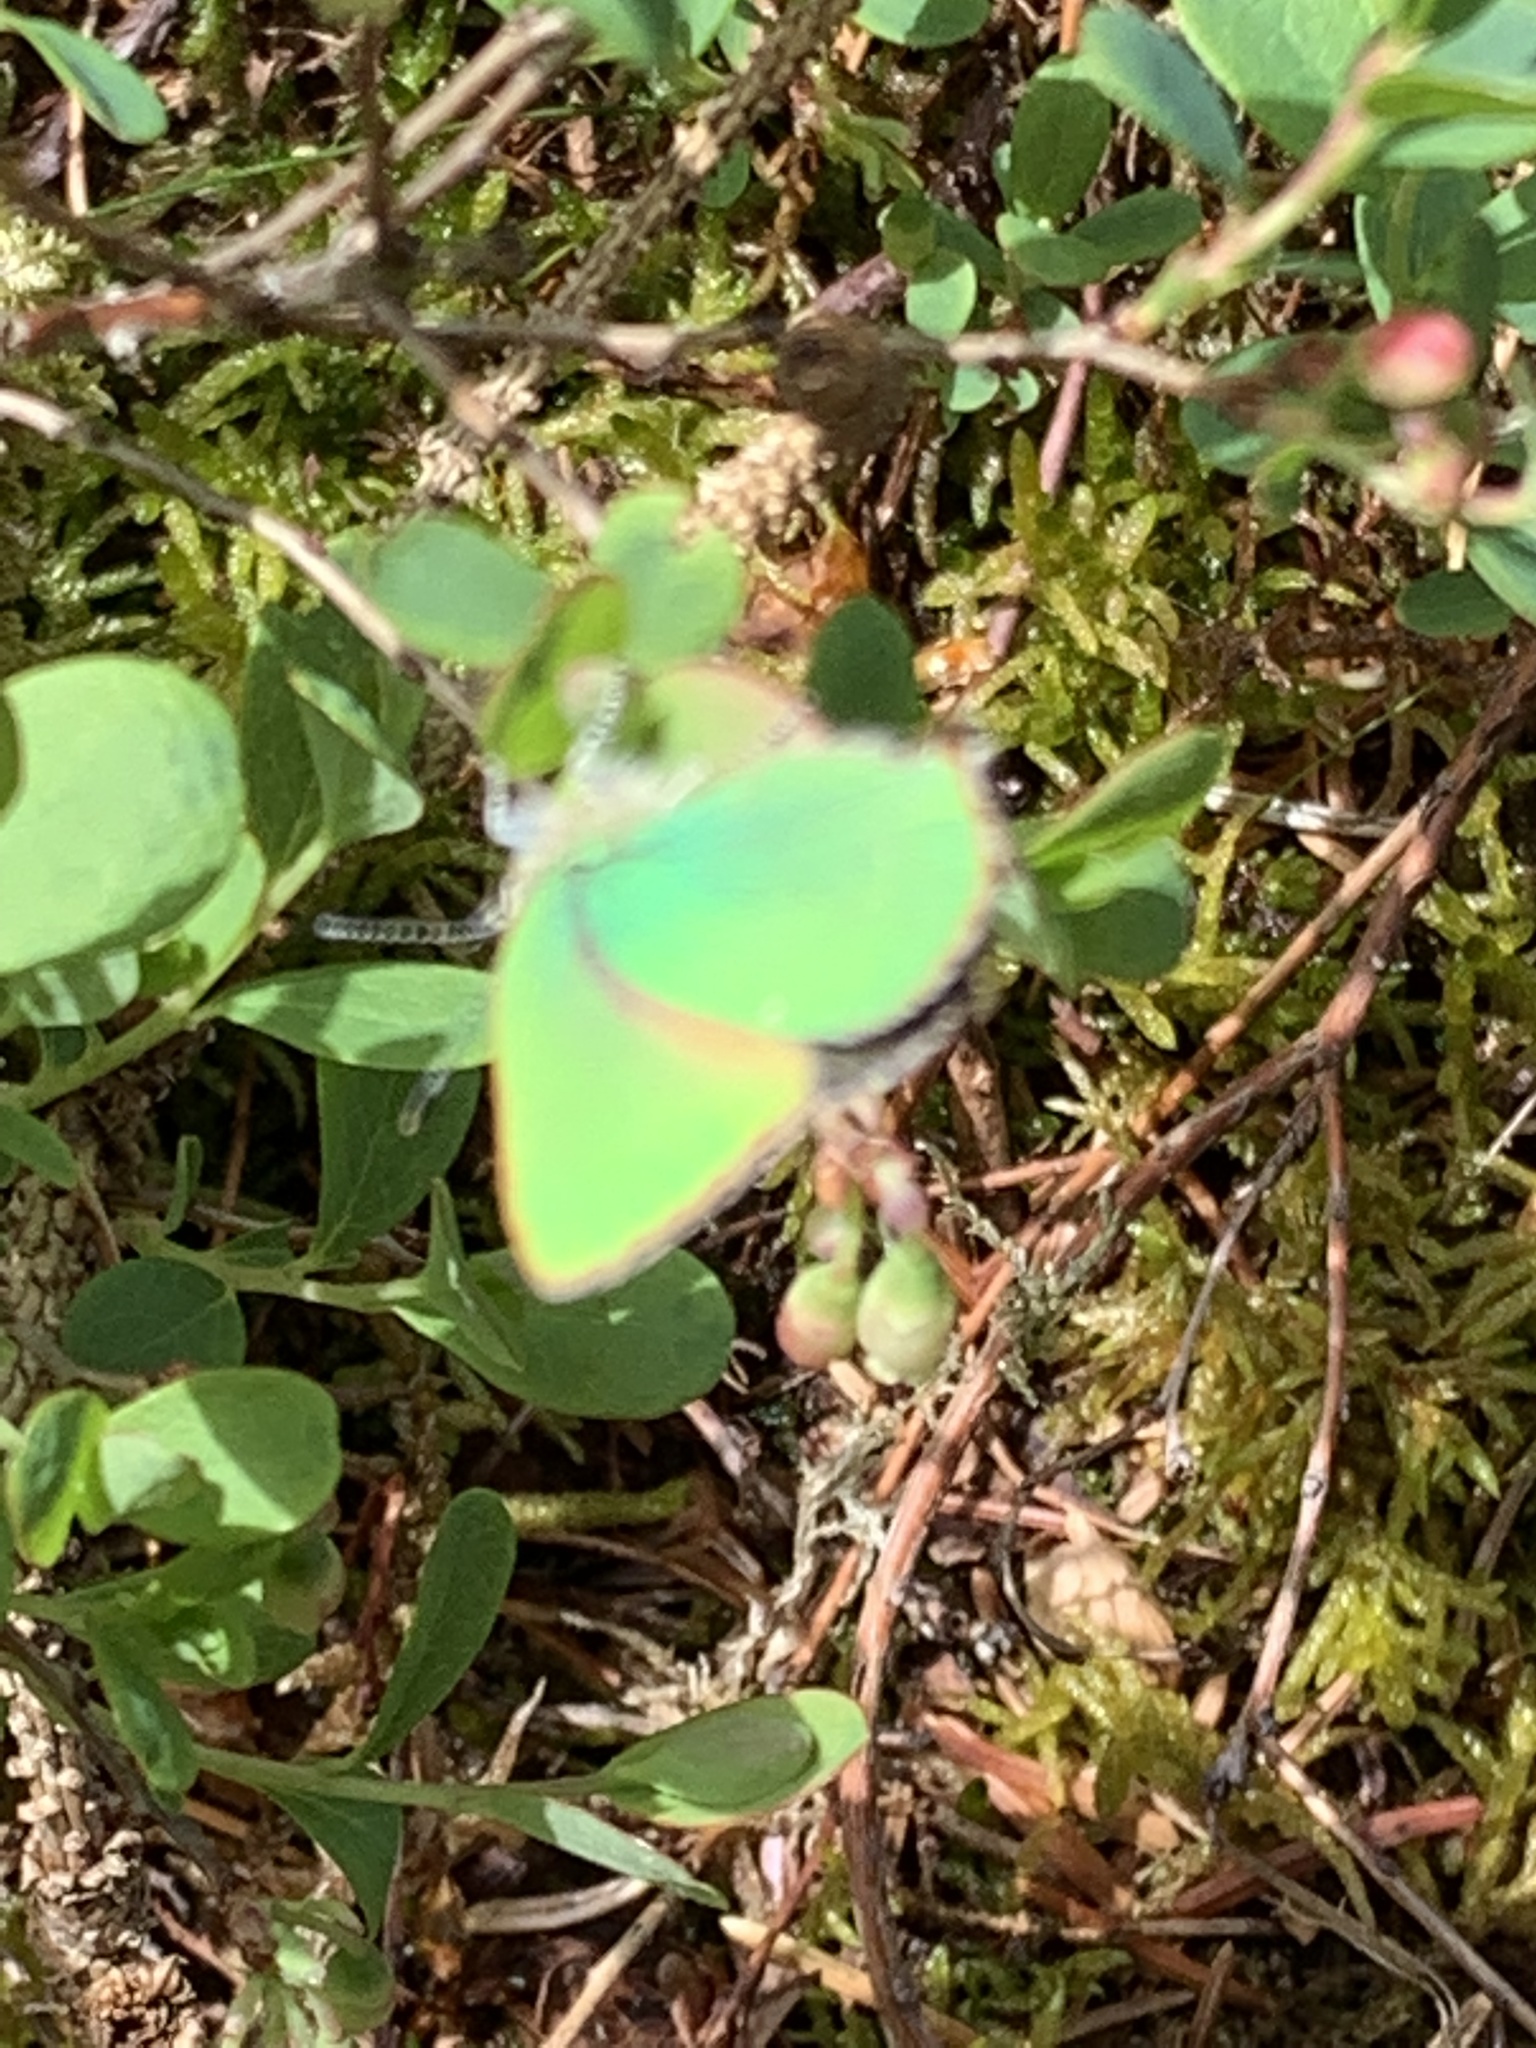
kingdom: Animalia
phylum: Arthropoda
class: Insecta
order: Lepidoptera
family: Lycaenidae
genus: Callophrys
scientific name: Callophrys rubi
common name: Green hairstreak
